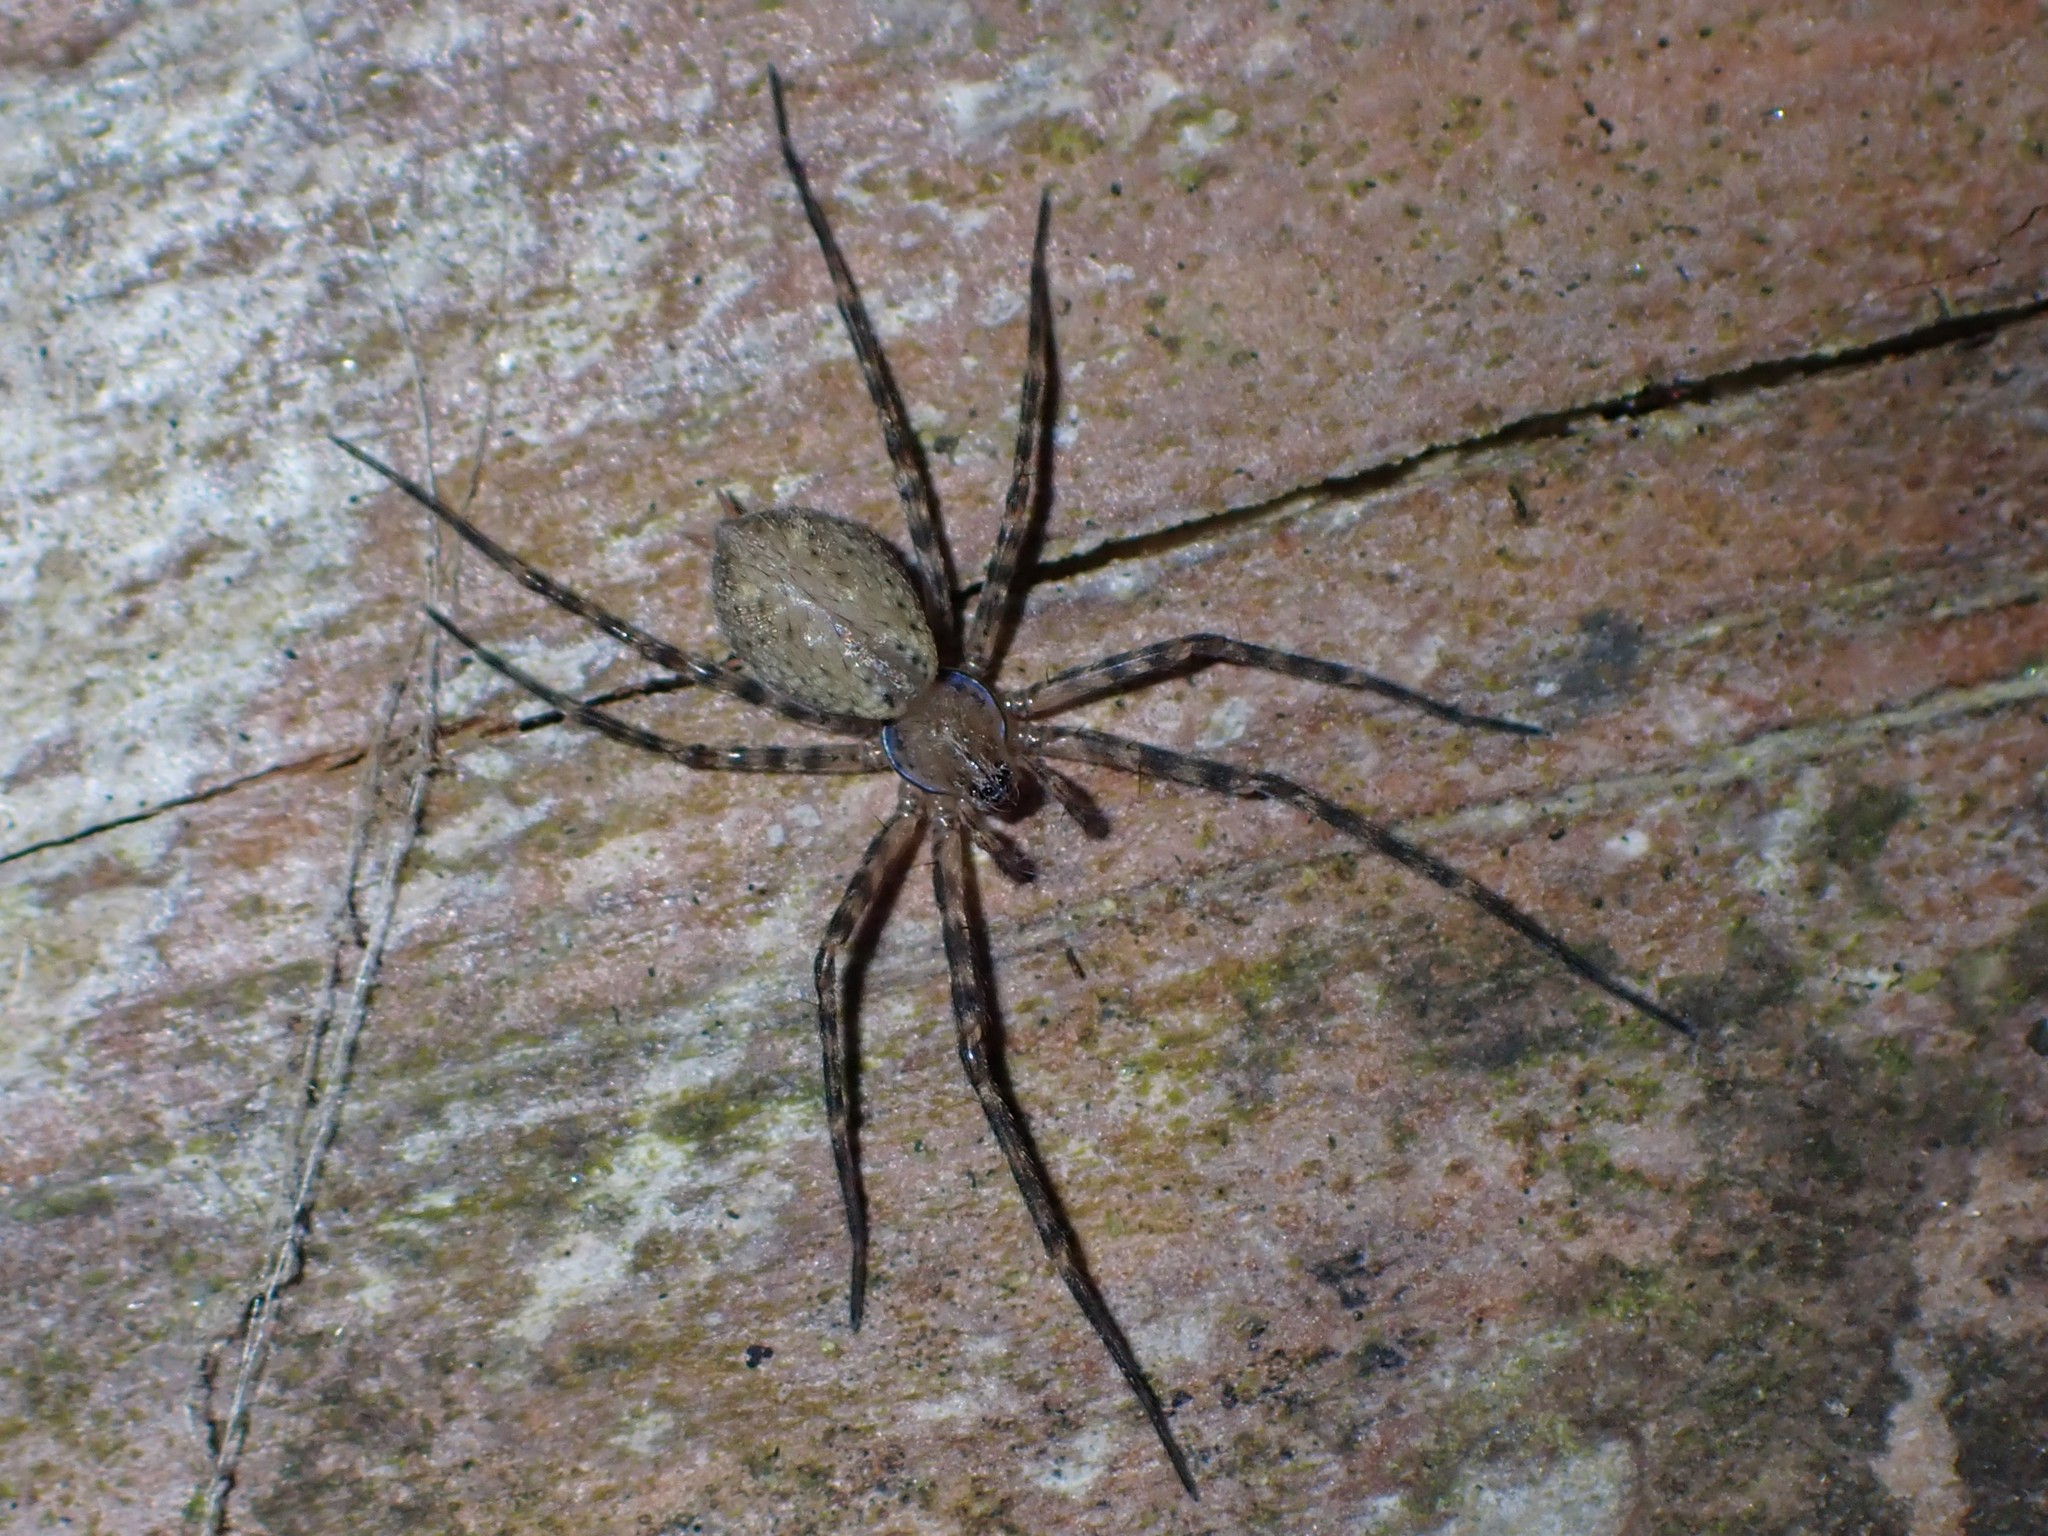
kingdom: Animalia
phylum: Arthropoda
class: Arachnida
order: Araneae
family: Stiphidiidae
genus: Stiphidion
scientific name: Stiphidion facetum
